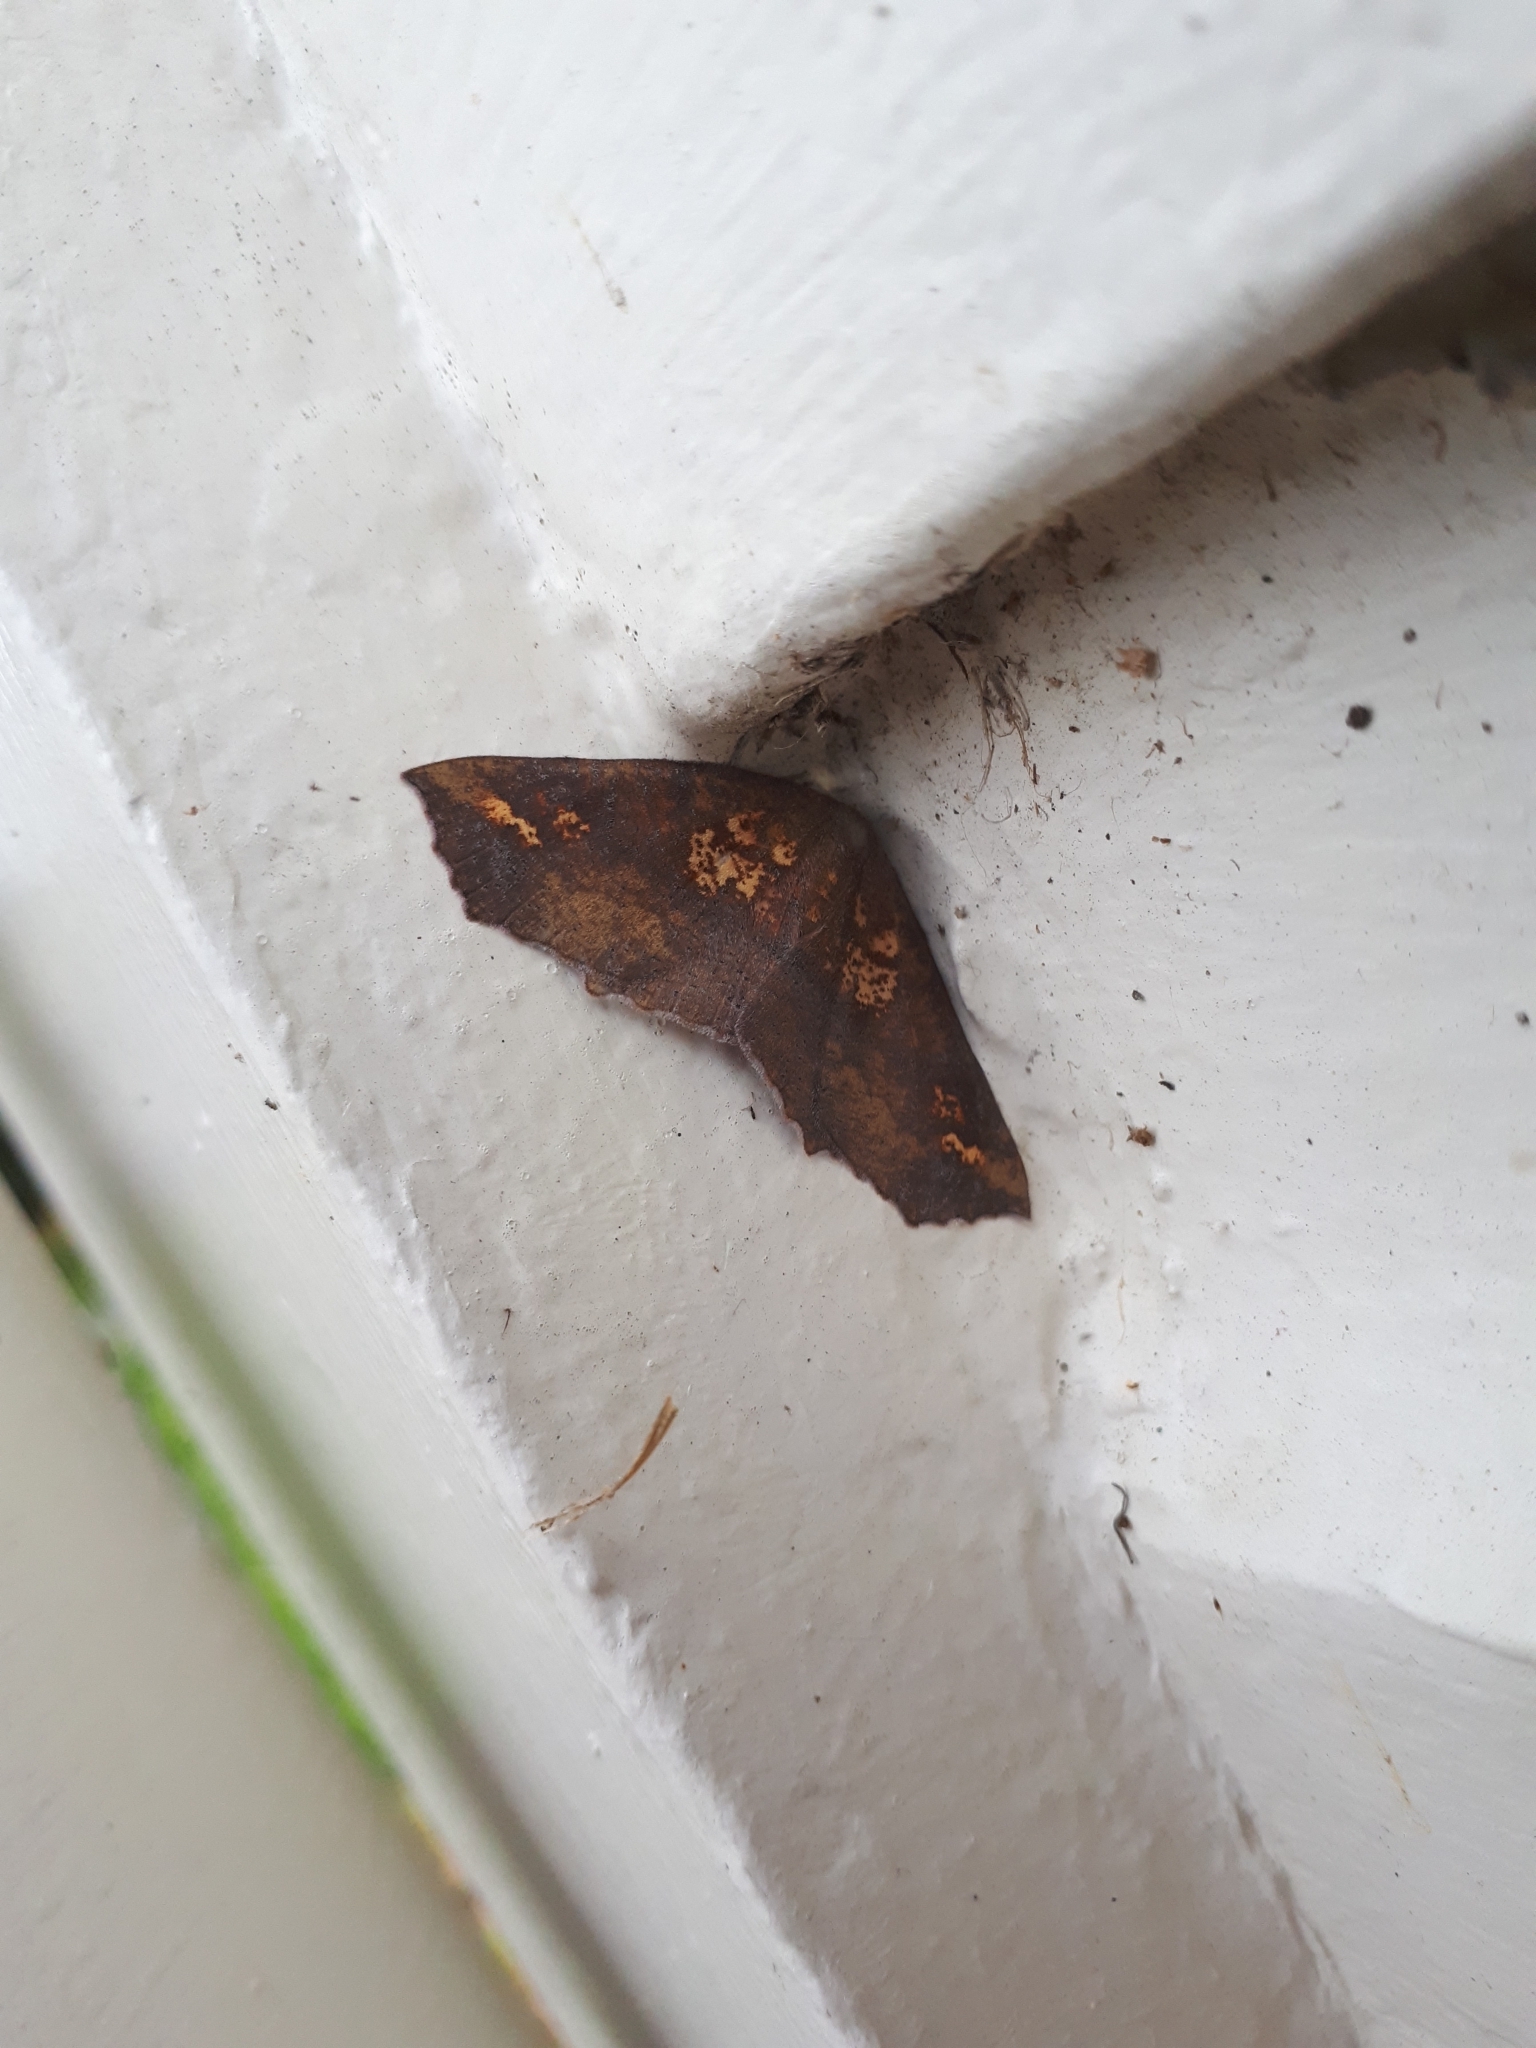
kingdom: Animalia
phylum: Arthropoda
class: Insecta
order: Lepidoptera
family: Geometridae
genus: Xyridacma
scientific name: Xyridacma ustaria
